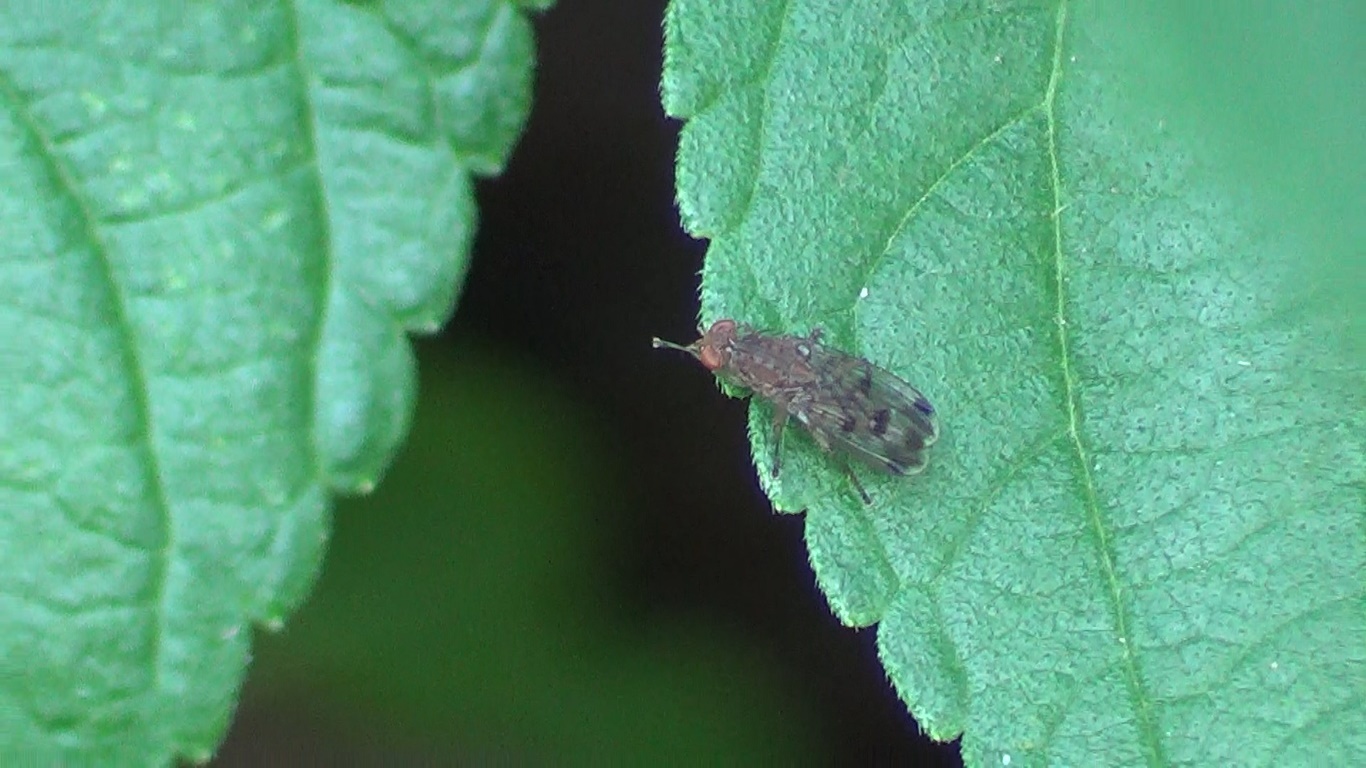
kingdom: Animalia
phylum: Arthropoda
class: Insecta
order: Diptera
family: Heleomyzidae
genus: Suillia
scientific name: Suillia variegata
